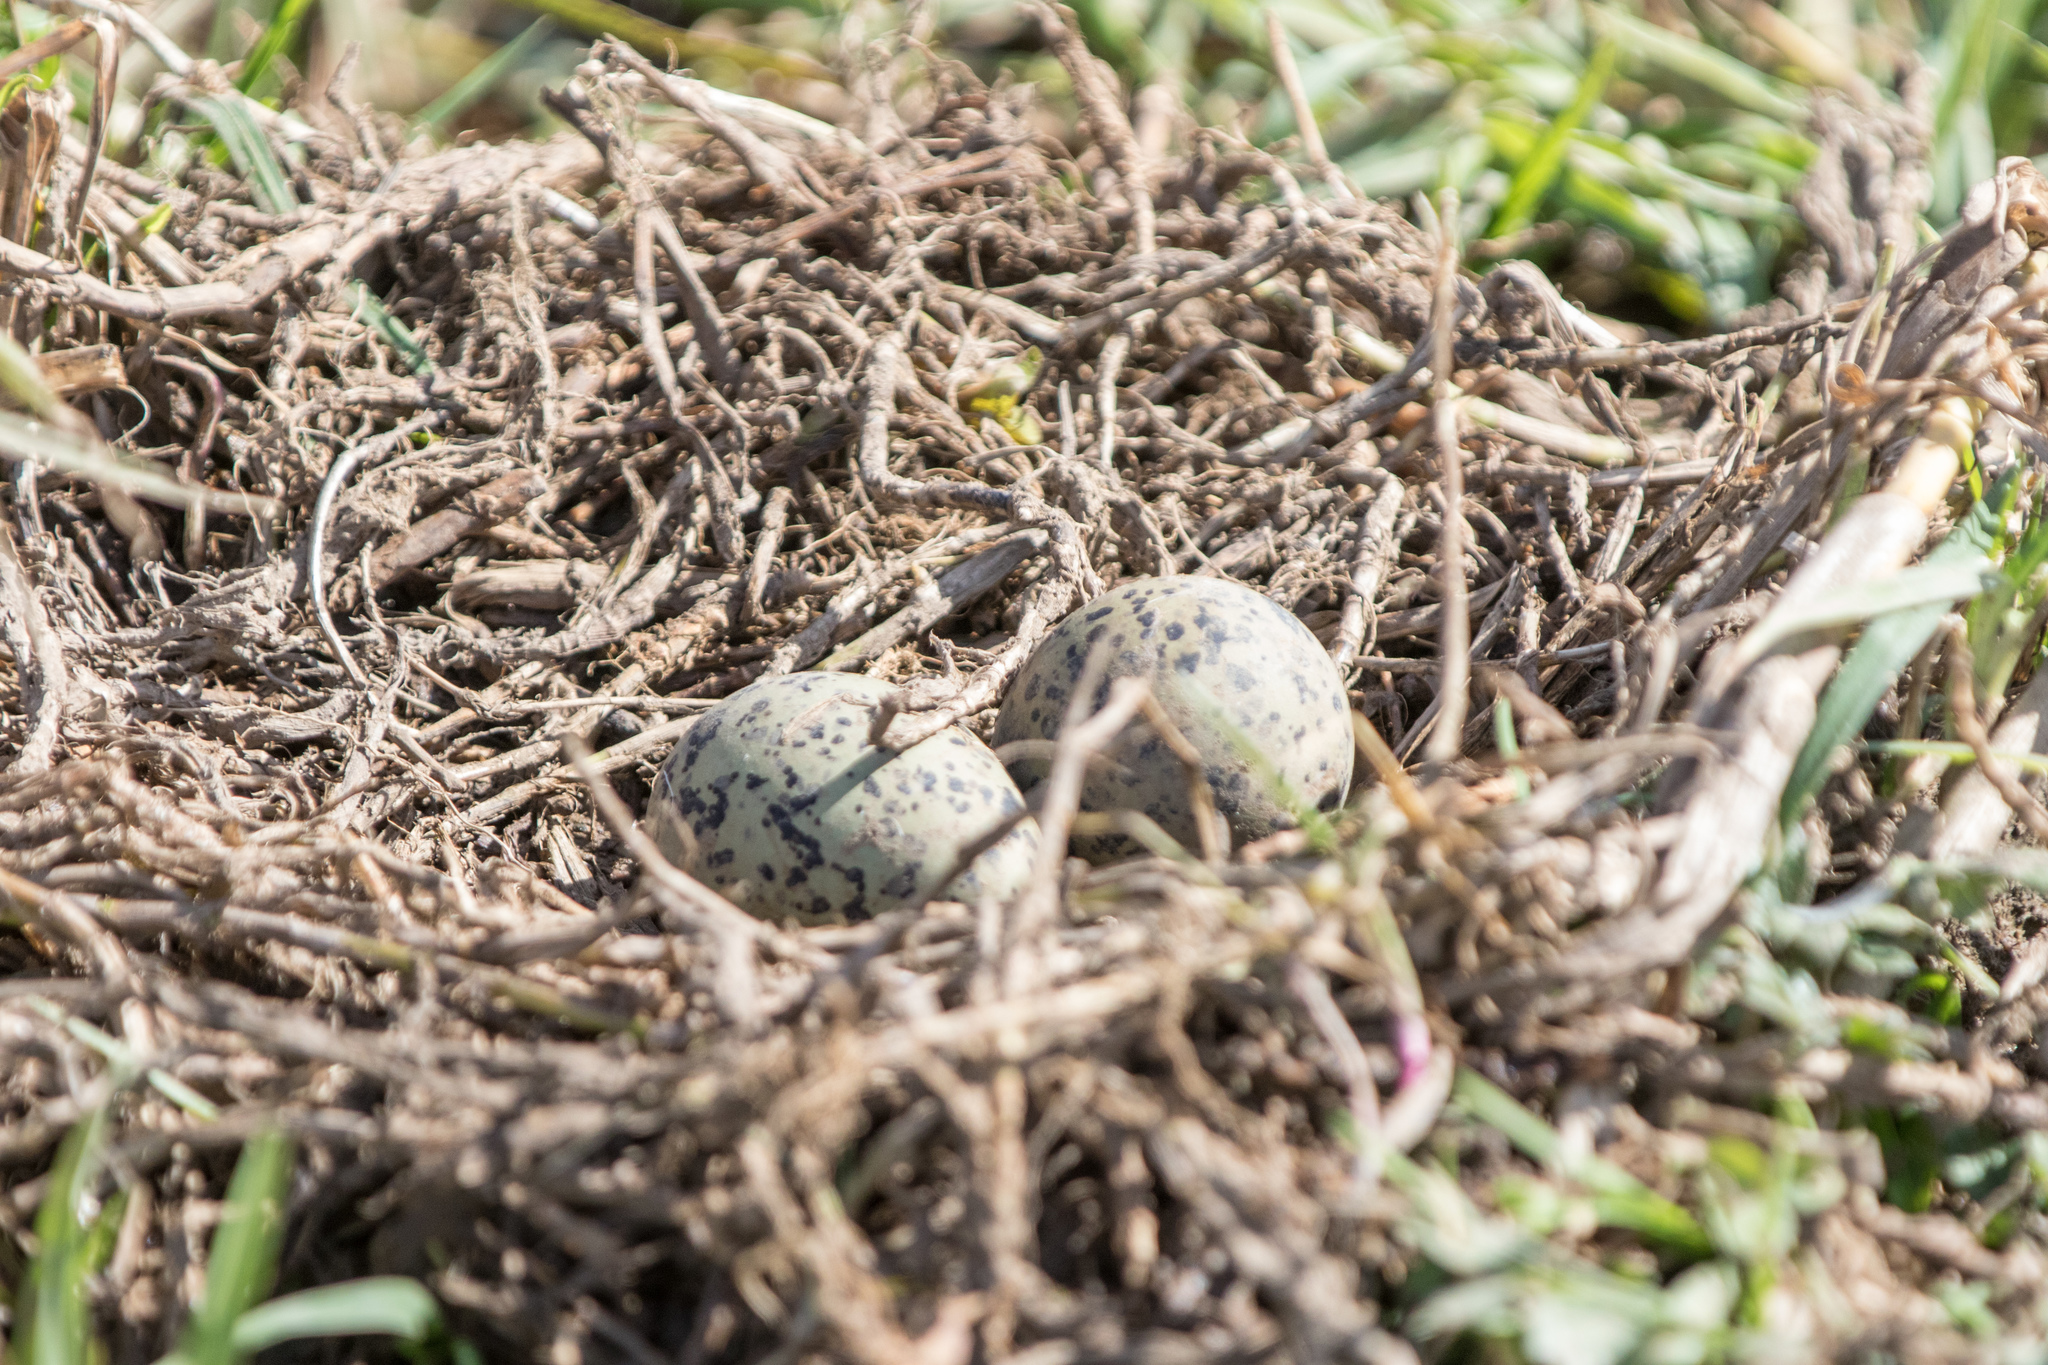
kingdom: Animalia
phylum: Chordata
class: Aves
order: Charadriiformes
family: Recurvirostridae
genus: Himantopus
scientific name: Himantopus leucocephalus
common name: White-headed stilt
